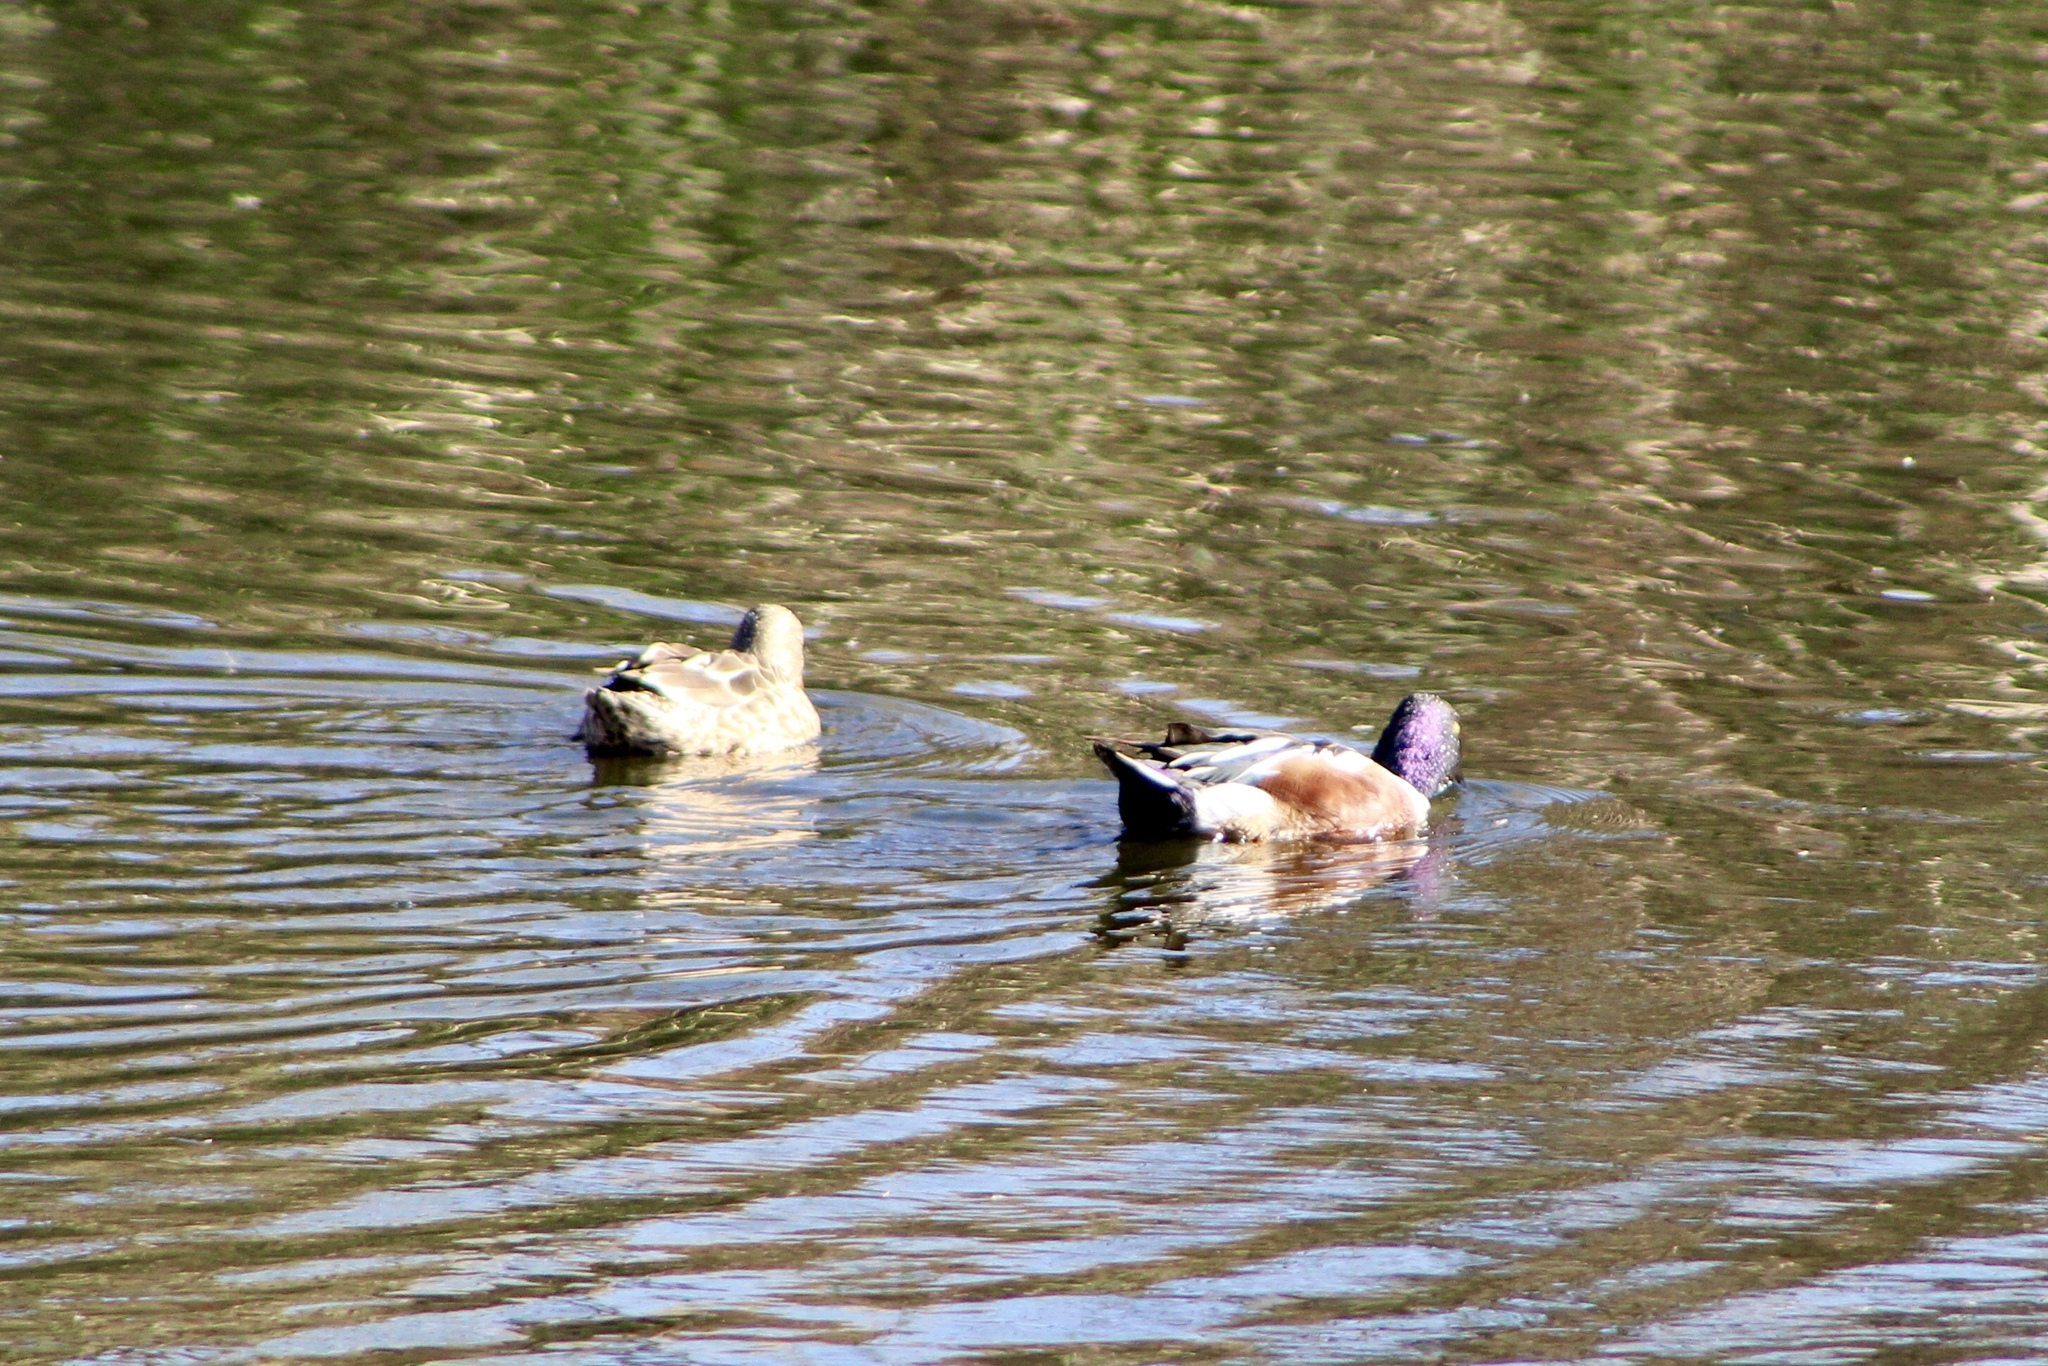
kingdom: Animalia
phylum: Chordata
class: Aves
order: Anseriformes
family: Anatidae
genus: Spatula
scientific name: Spatula clypeata
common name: Northern shoveler
